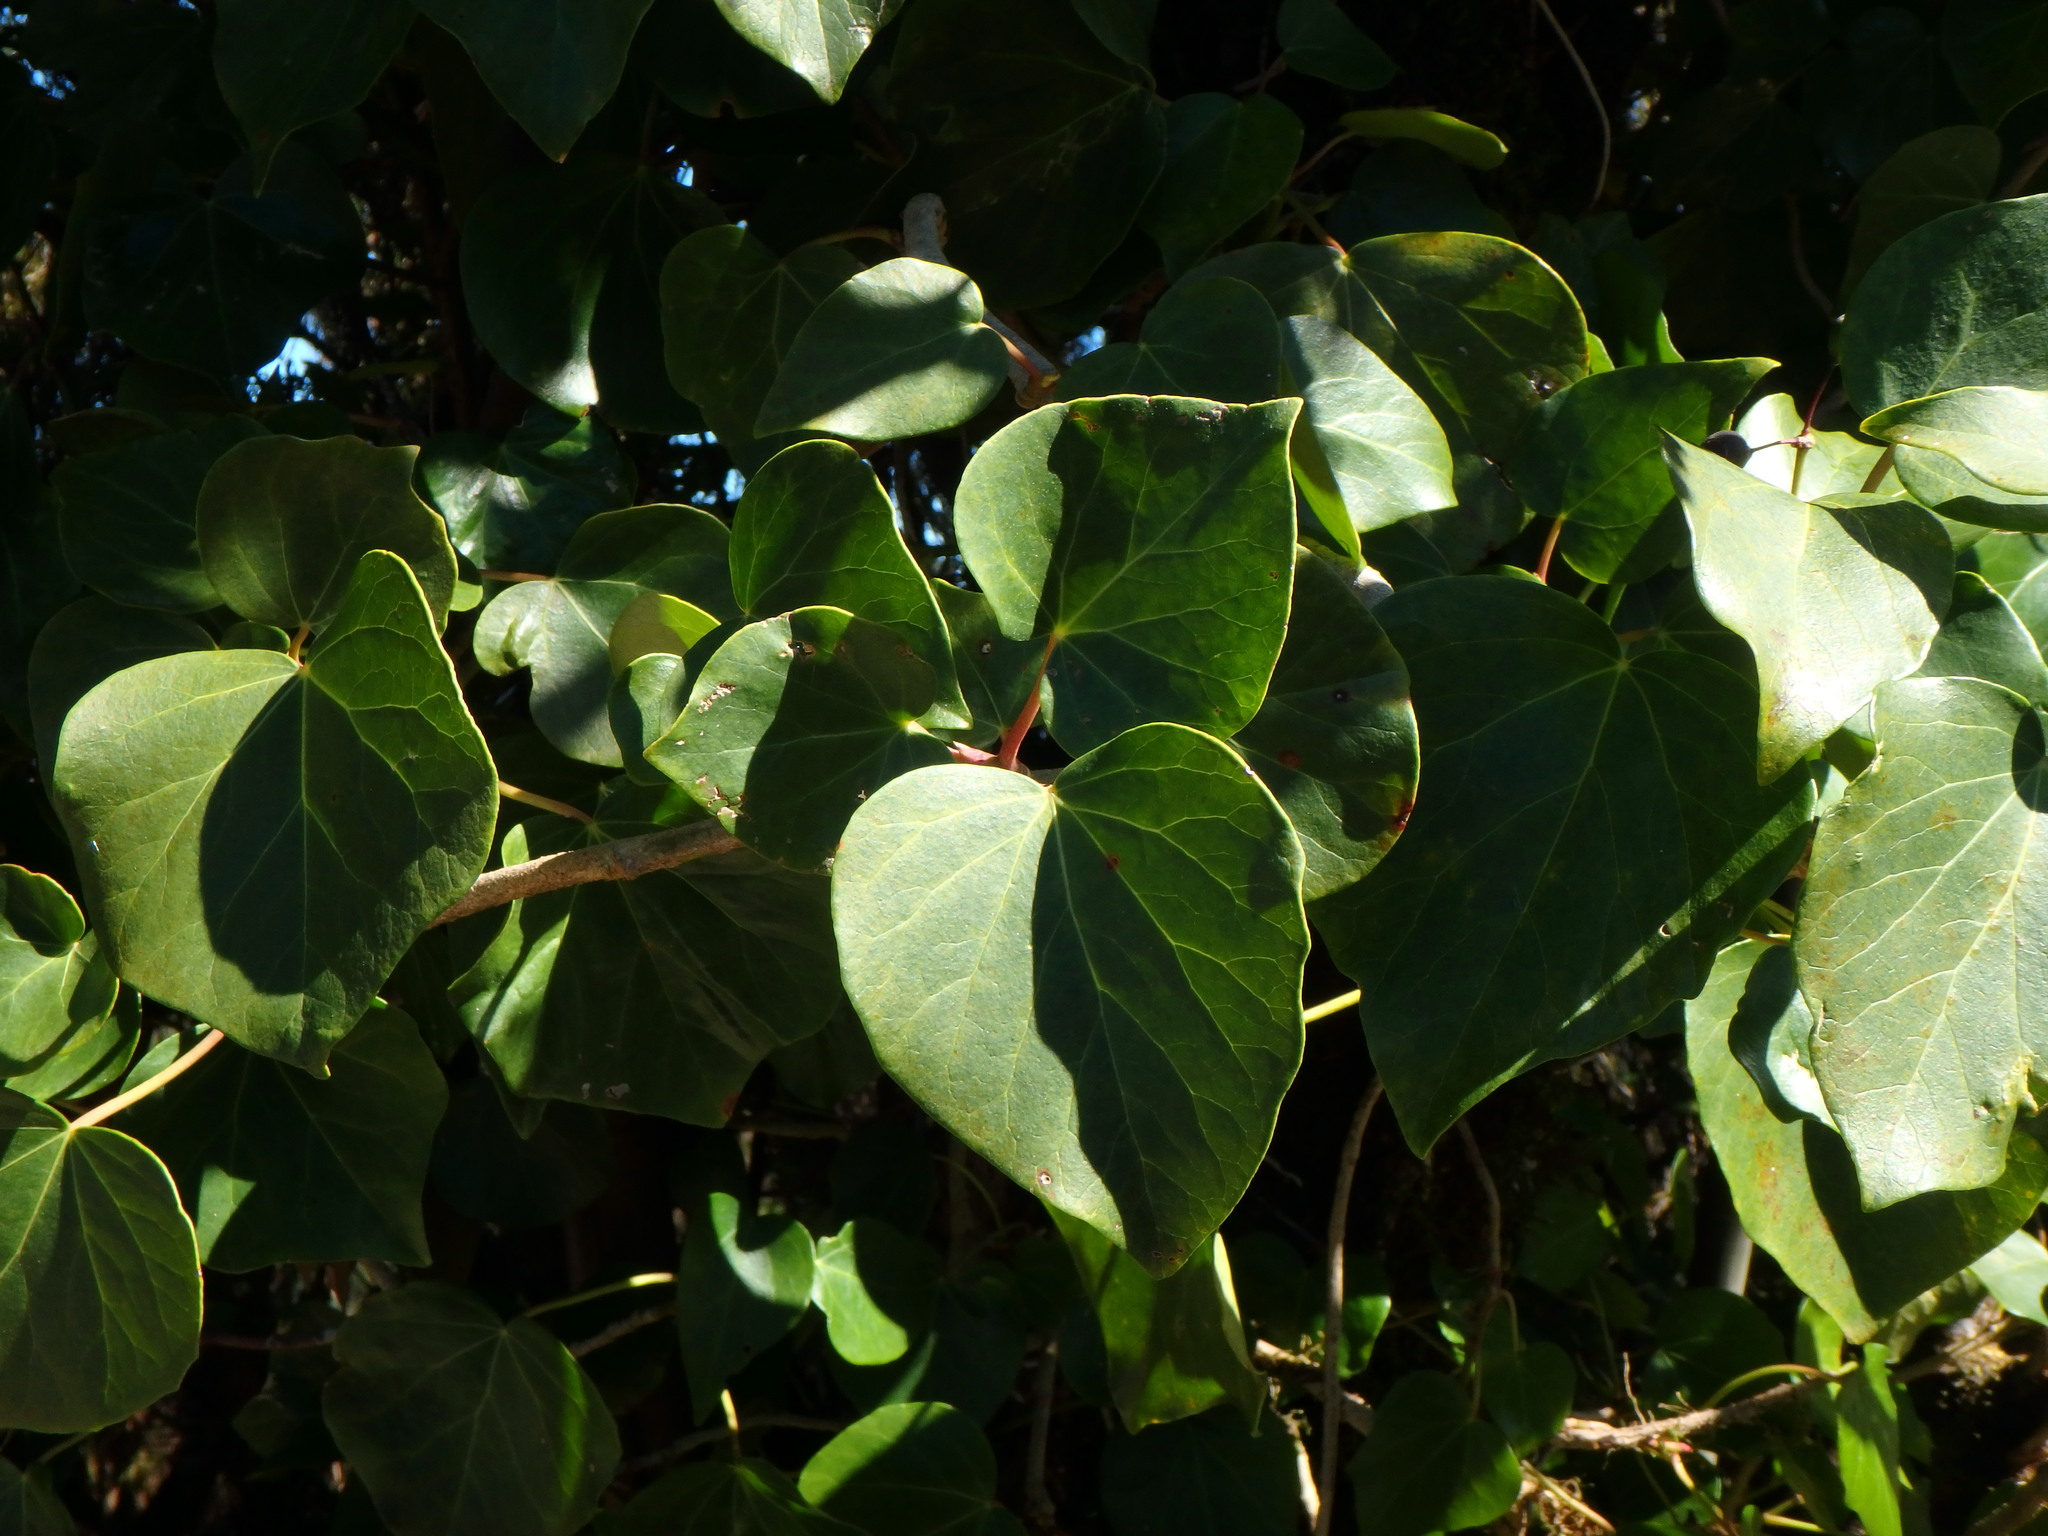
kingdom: Plantae
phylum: Tracheophyta
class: Magnoliopsida
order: Apiales
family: Araliaceae
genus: Hedera
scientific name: Hedera canariensis
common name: Madeira ivy
